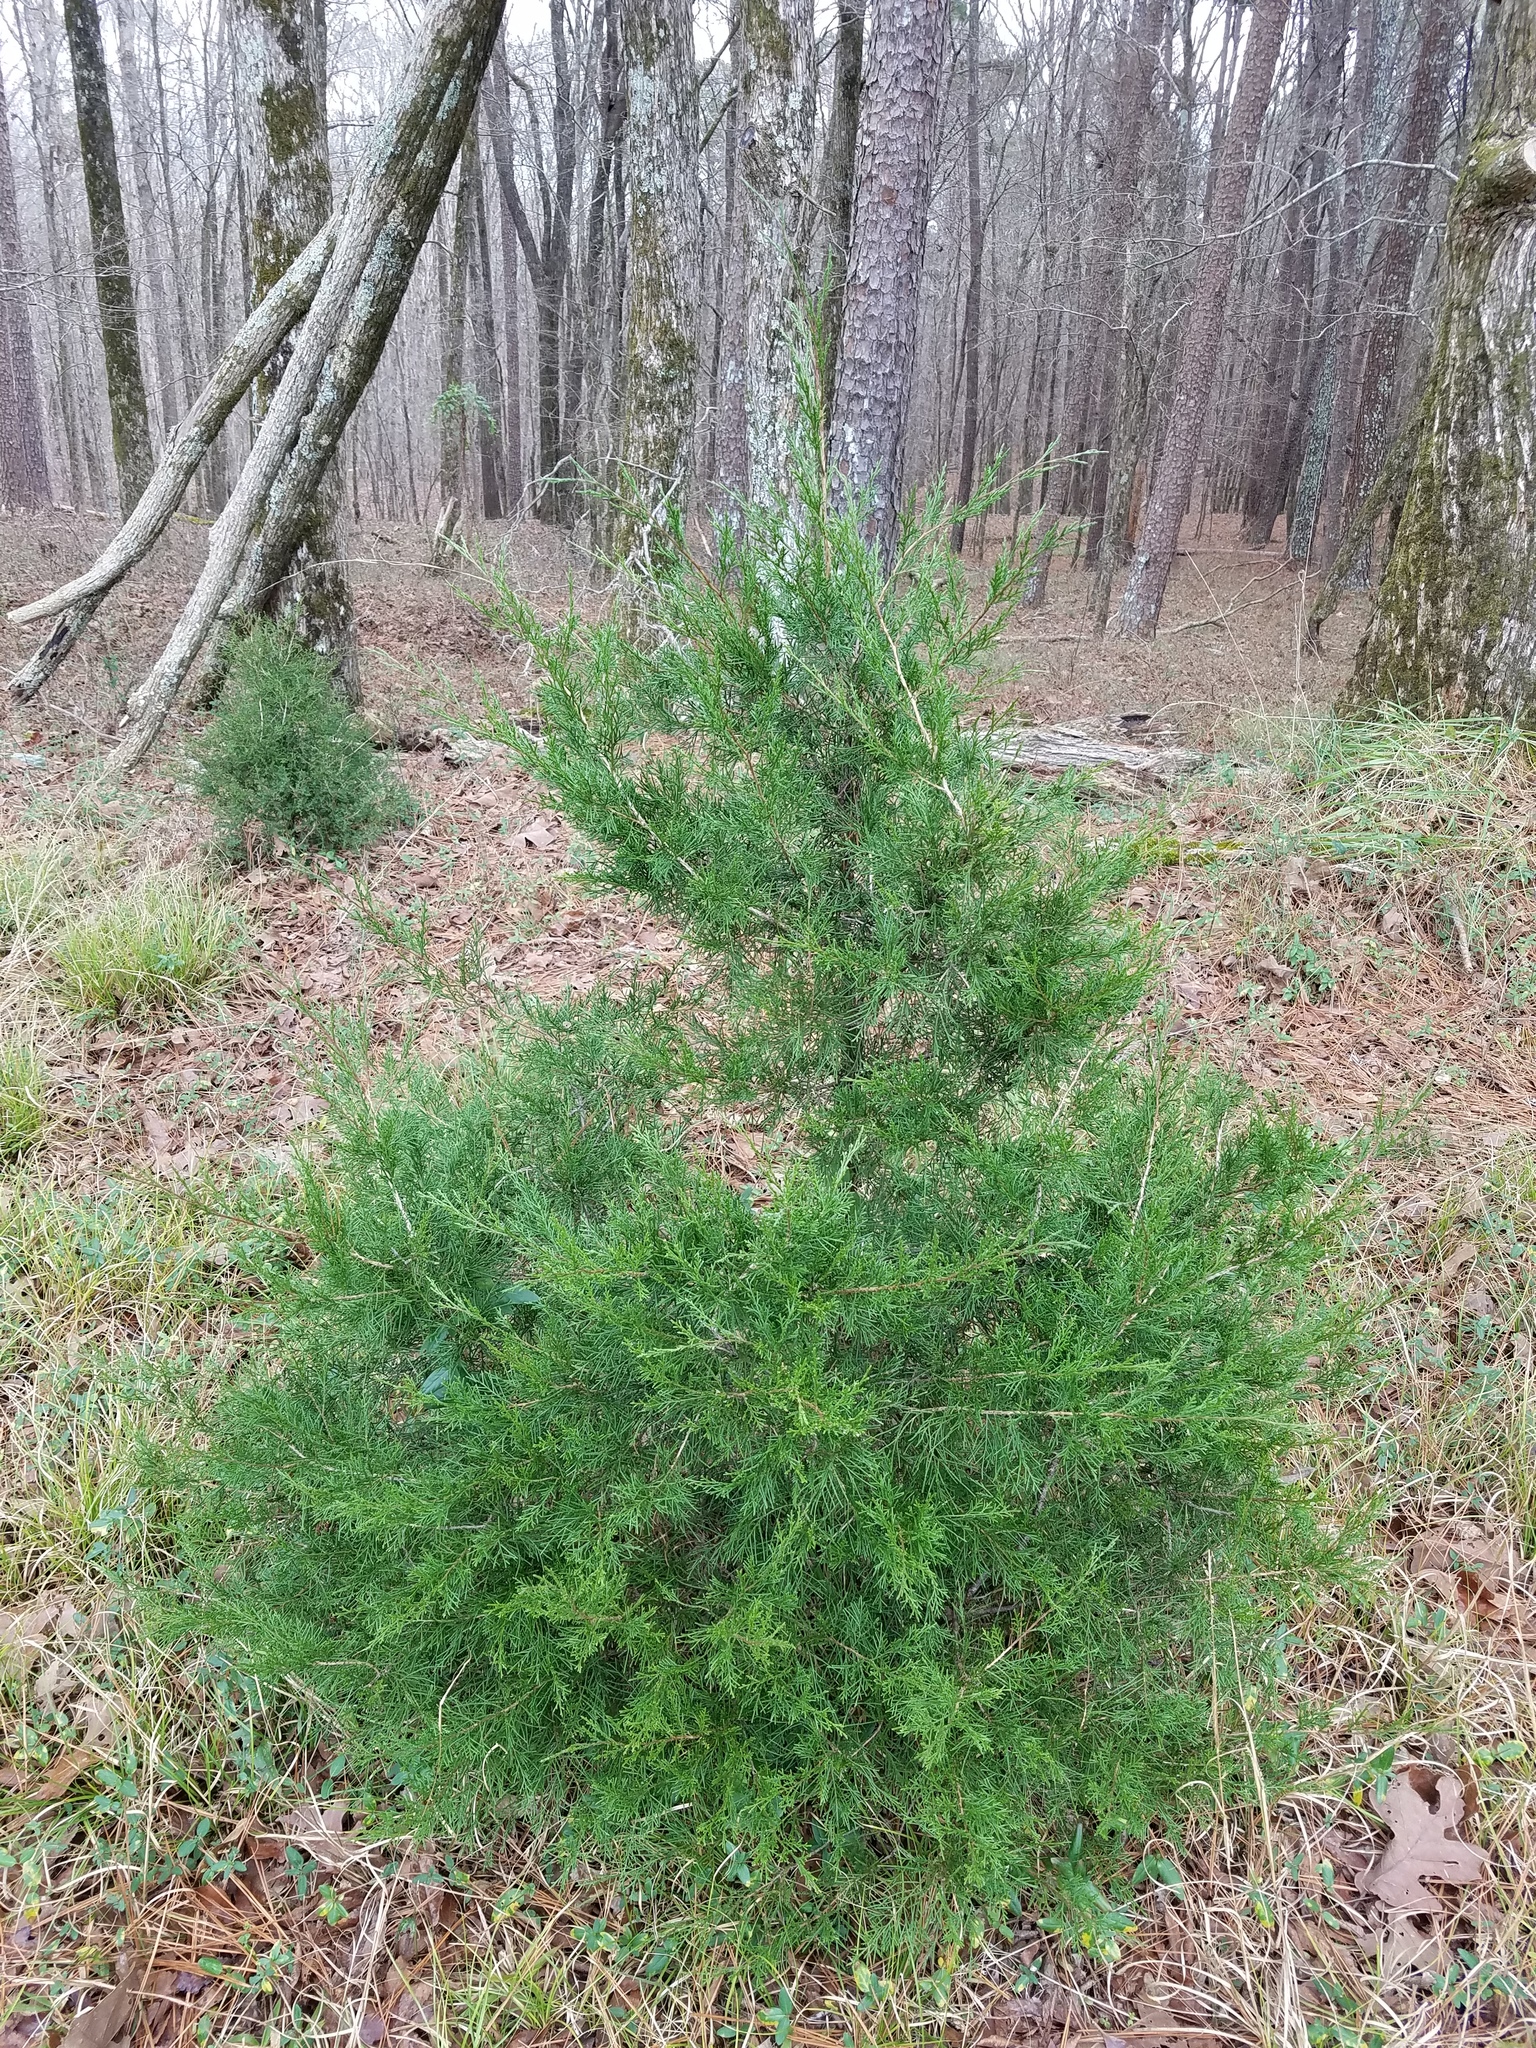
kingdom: Plantae
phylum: Tracheophyta
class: Pinopsida
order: Pinales
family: Cupressaceae
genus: Juniperus
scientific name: Juniperus virginiana
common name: Red juniper
